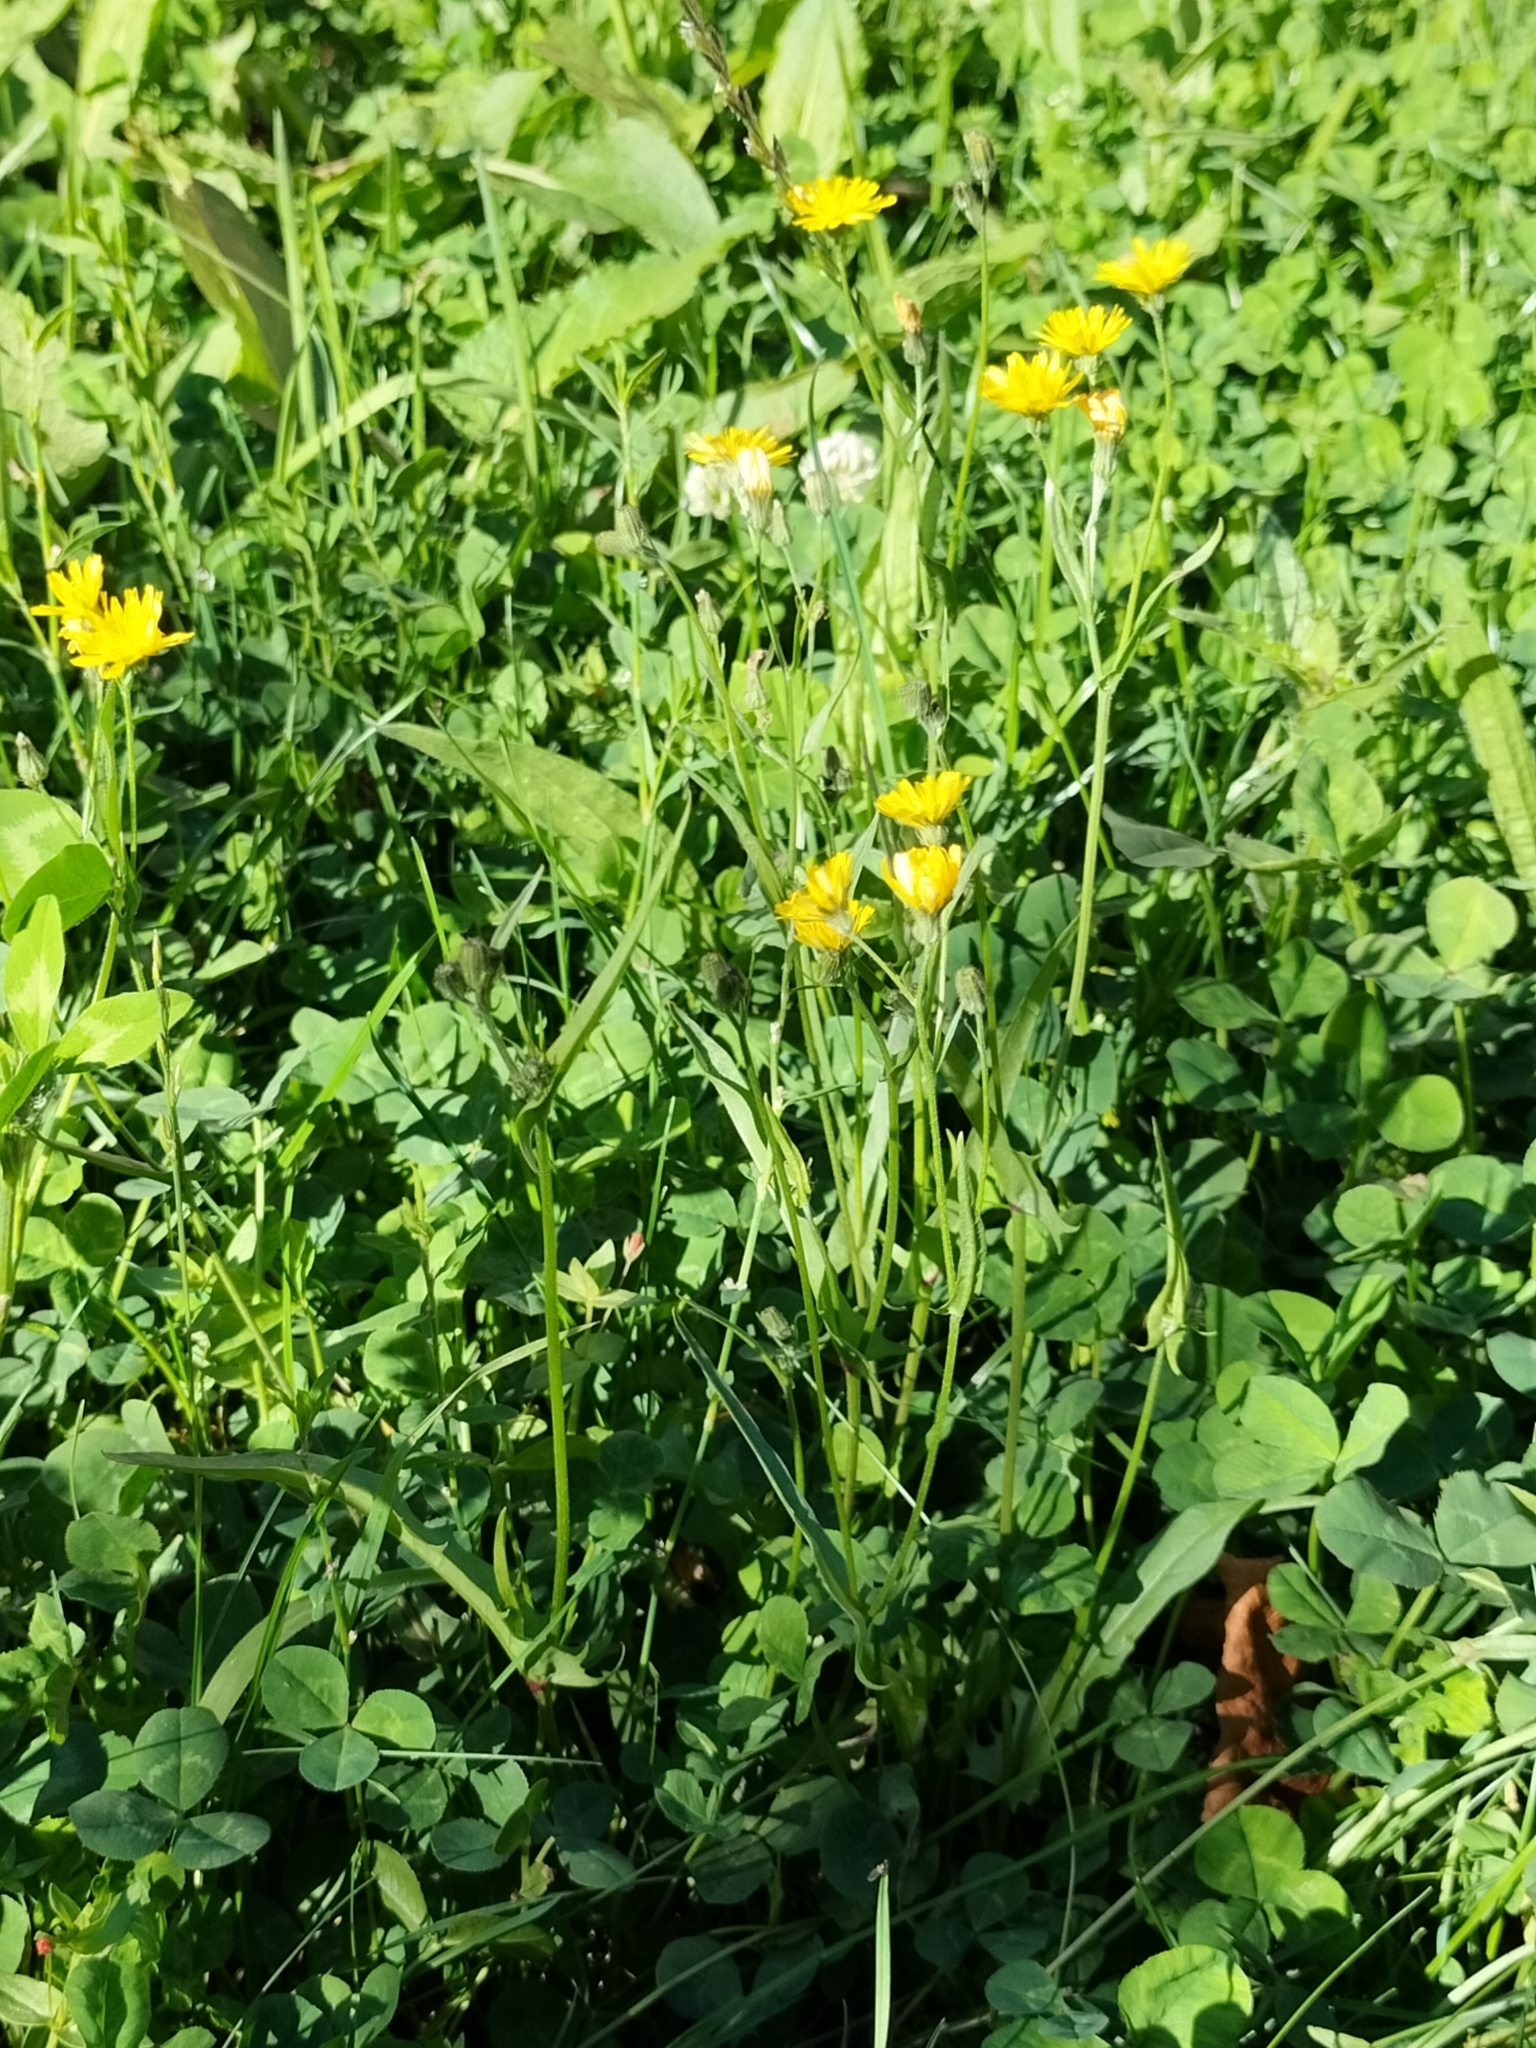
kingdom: Plantae
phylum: Tracheophyta
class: Magnoliopsida
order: Asterales
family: Asteraceae
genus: Crepis
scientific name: Crepis capillaris
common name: Smooth hawksbeard
